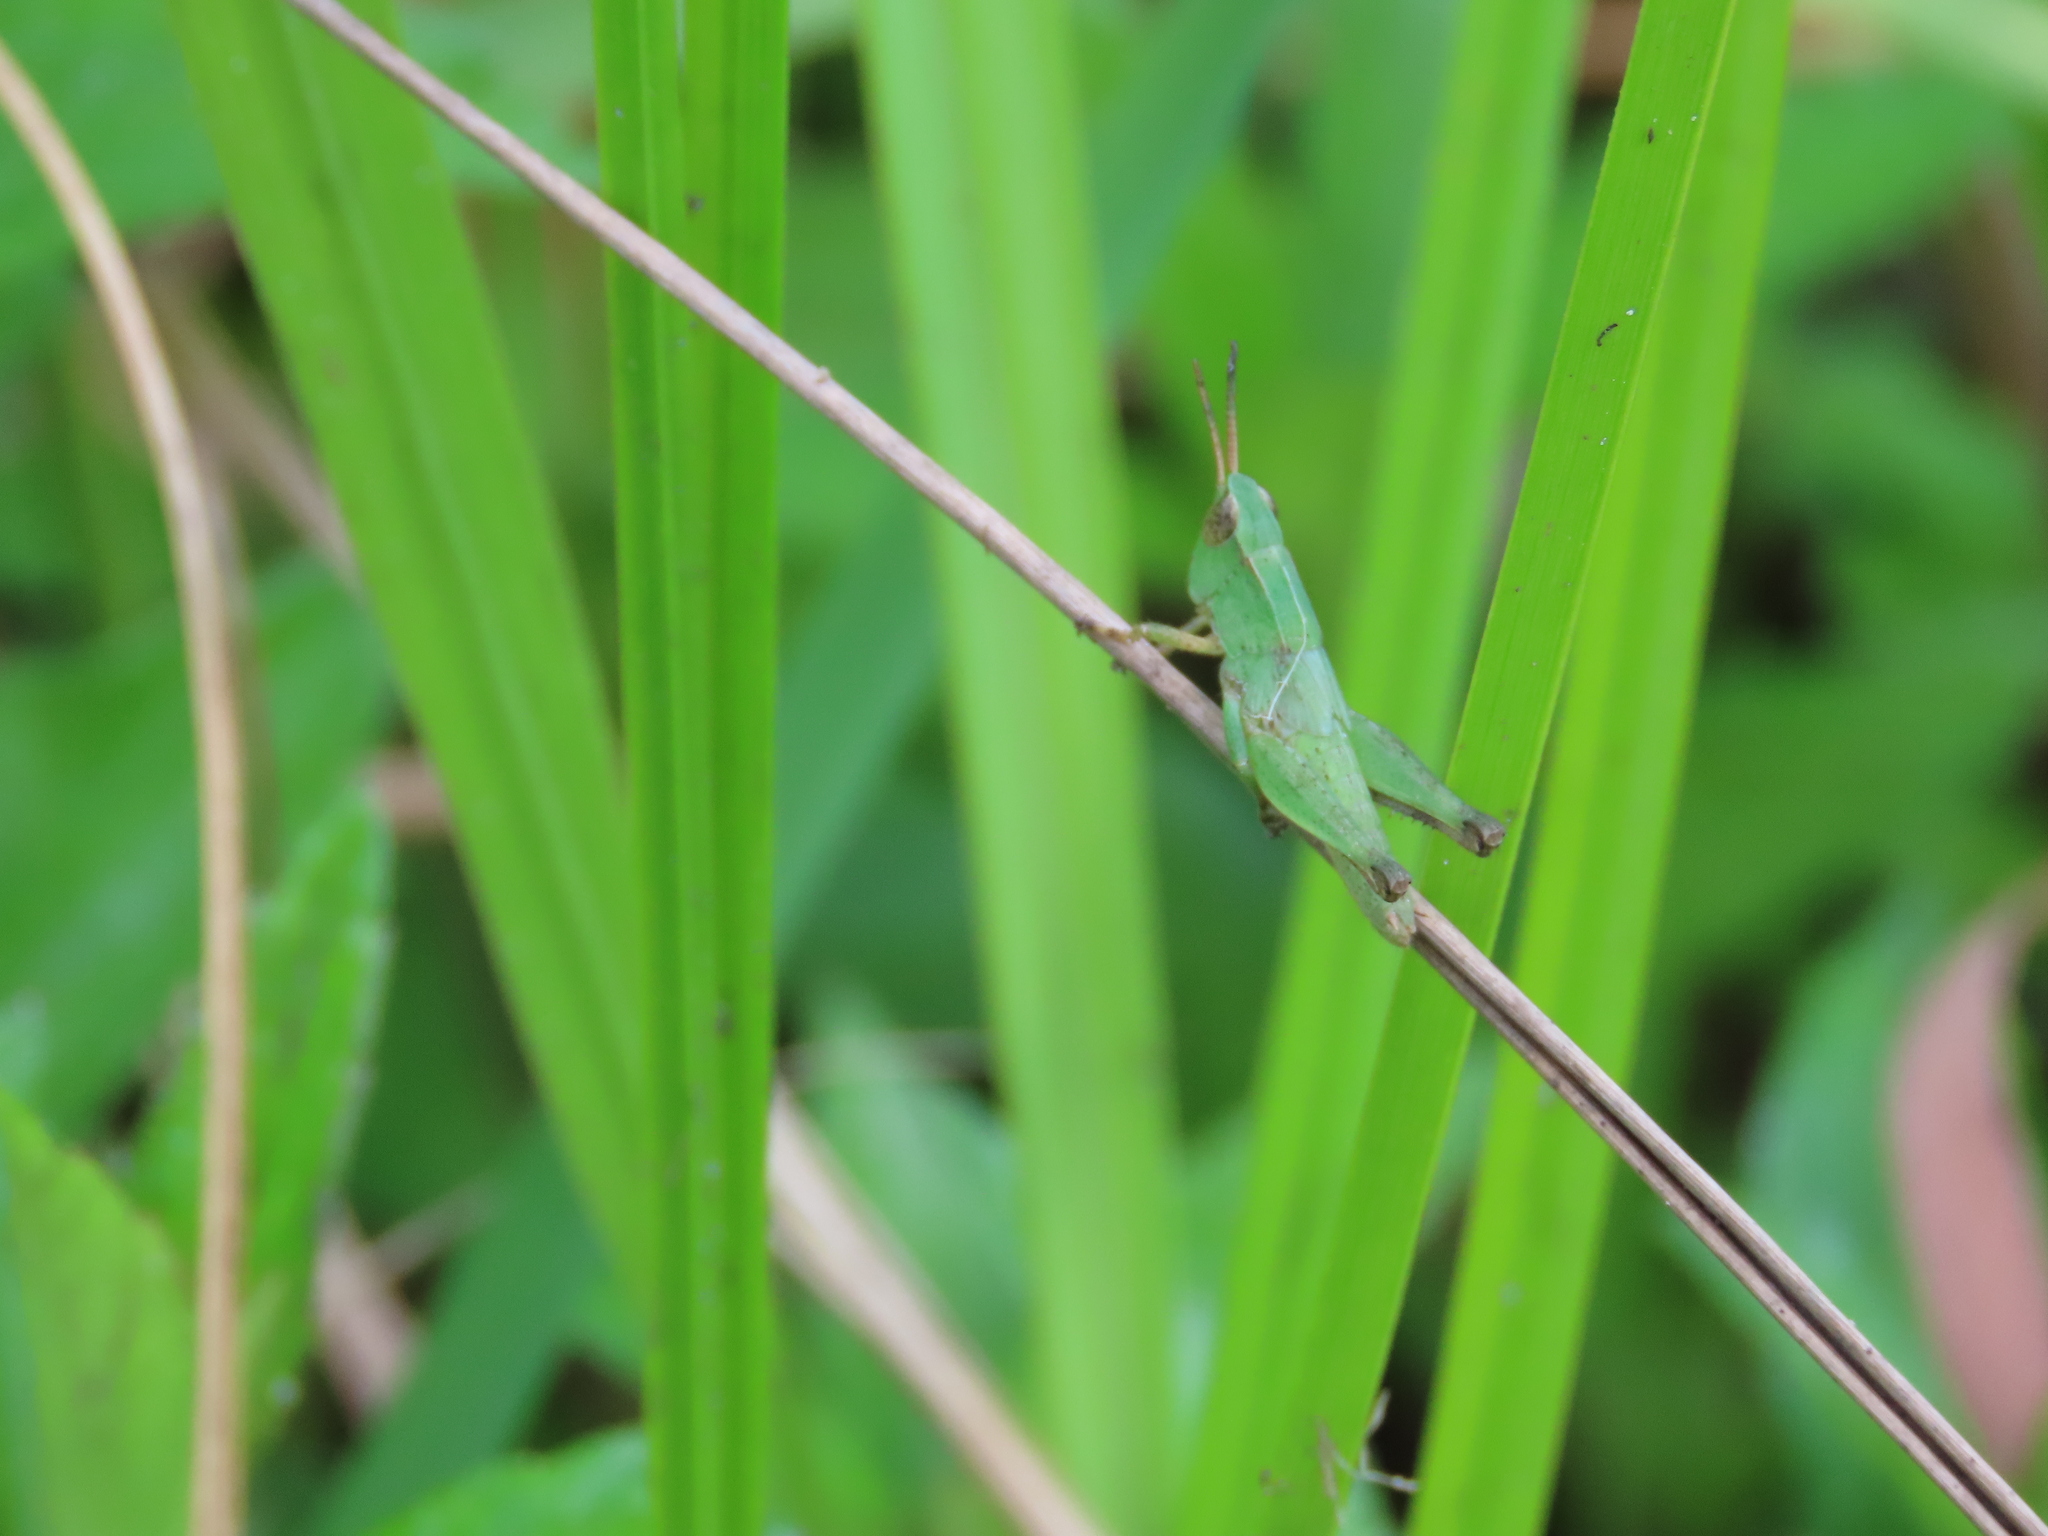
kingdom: Animalia
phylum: Arthropoda
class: Insecta
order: Orthoptera
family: Acrididae
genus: Dichromorpha
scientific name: Dichromorpha viridis
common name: Short-winged green grasshopper
